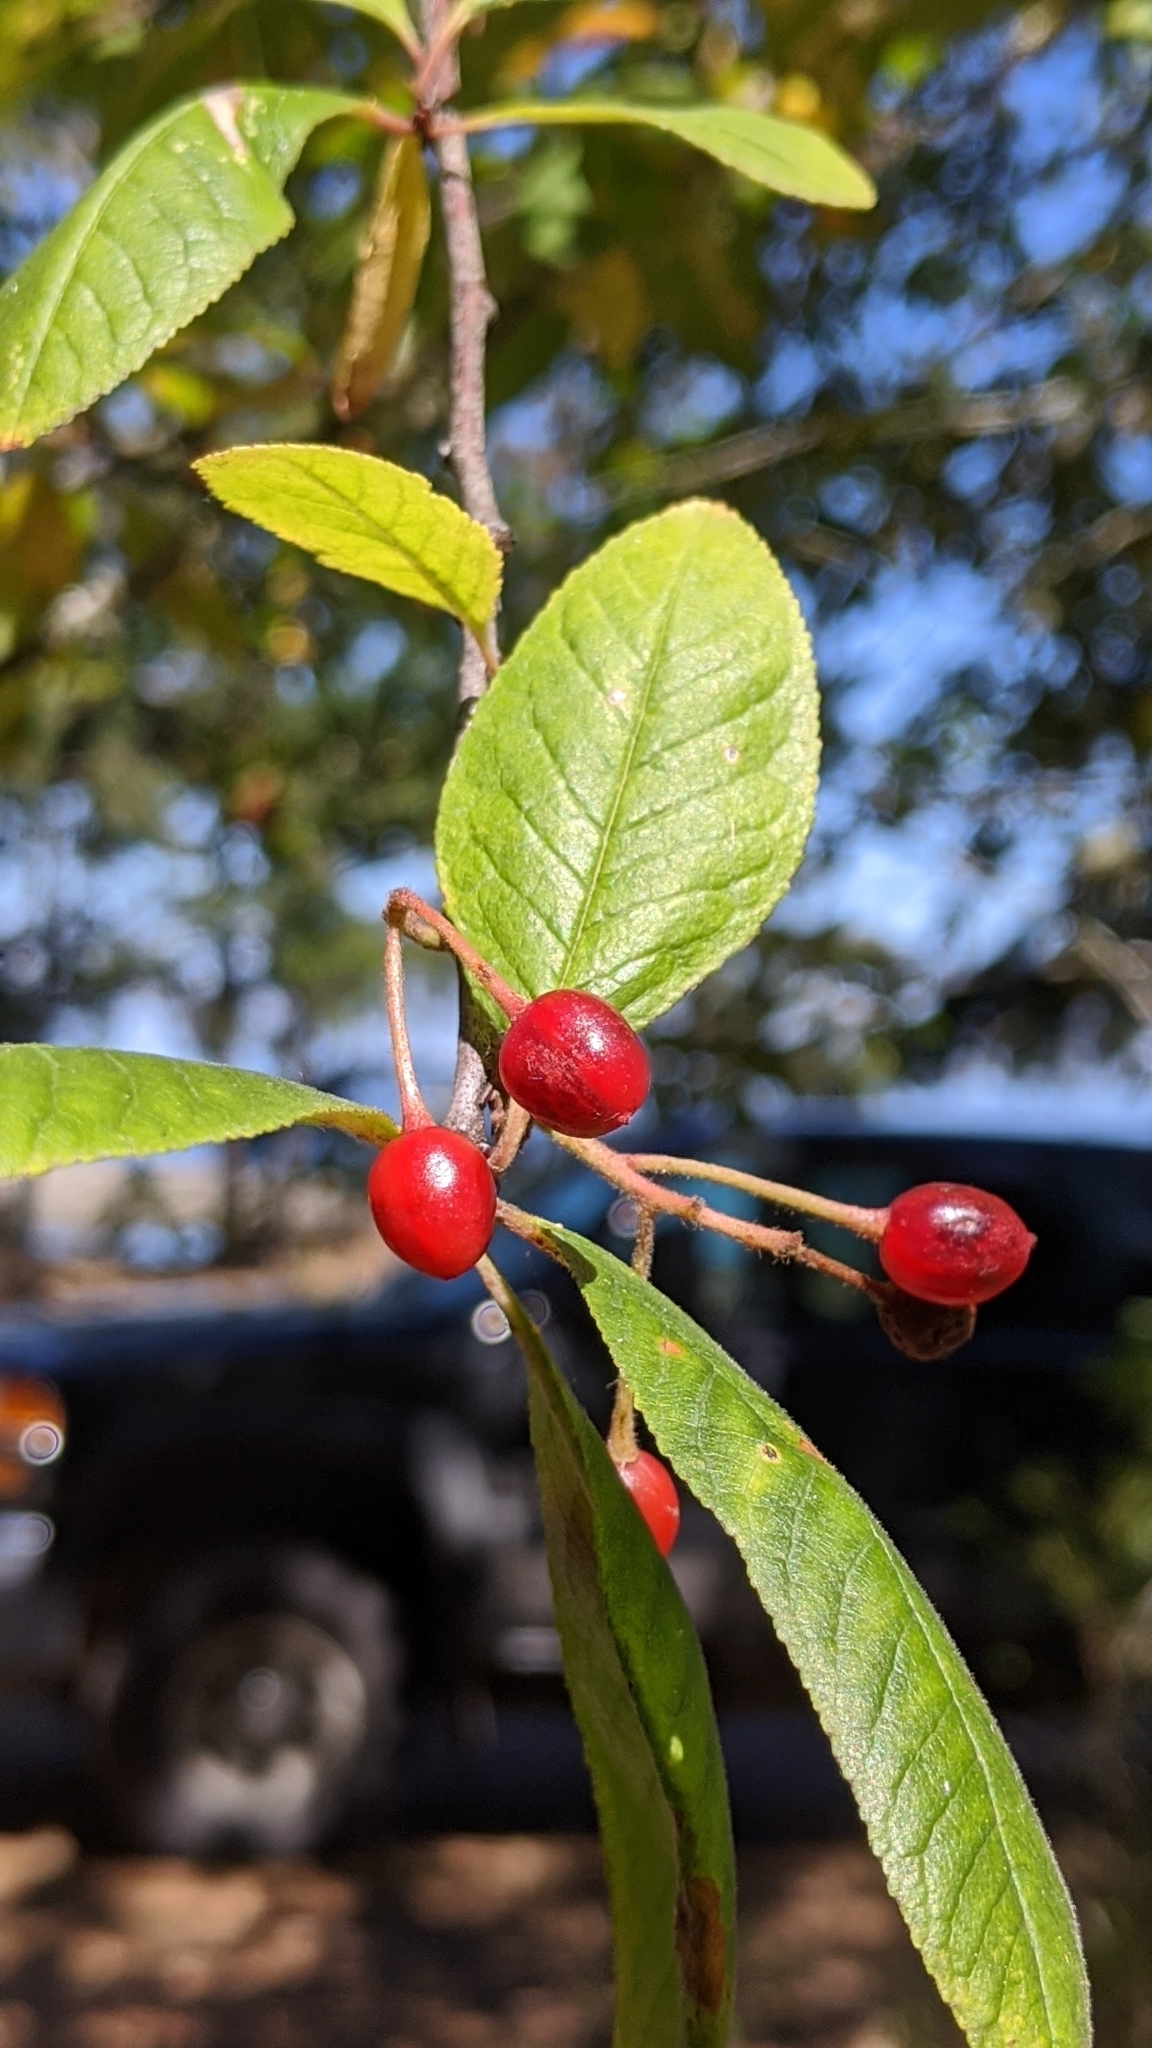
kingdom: Plantae
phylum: Tracheophyta
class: Magnoliopsida
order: Rosales
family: Rosaceae
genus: Prunus
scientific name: Prunus emarginata
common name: Bitter cherry
